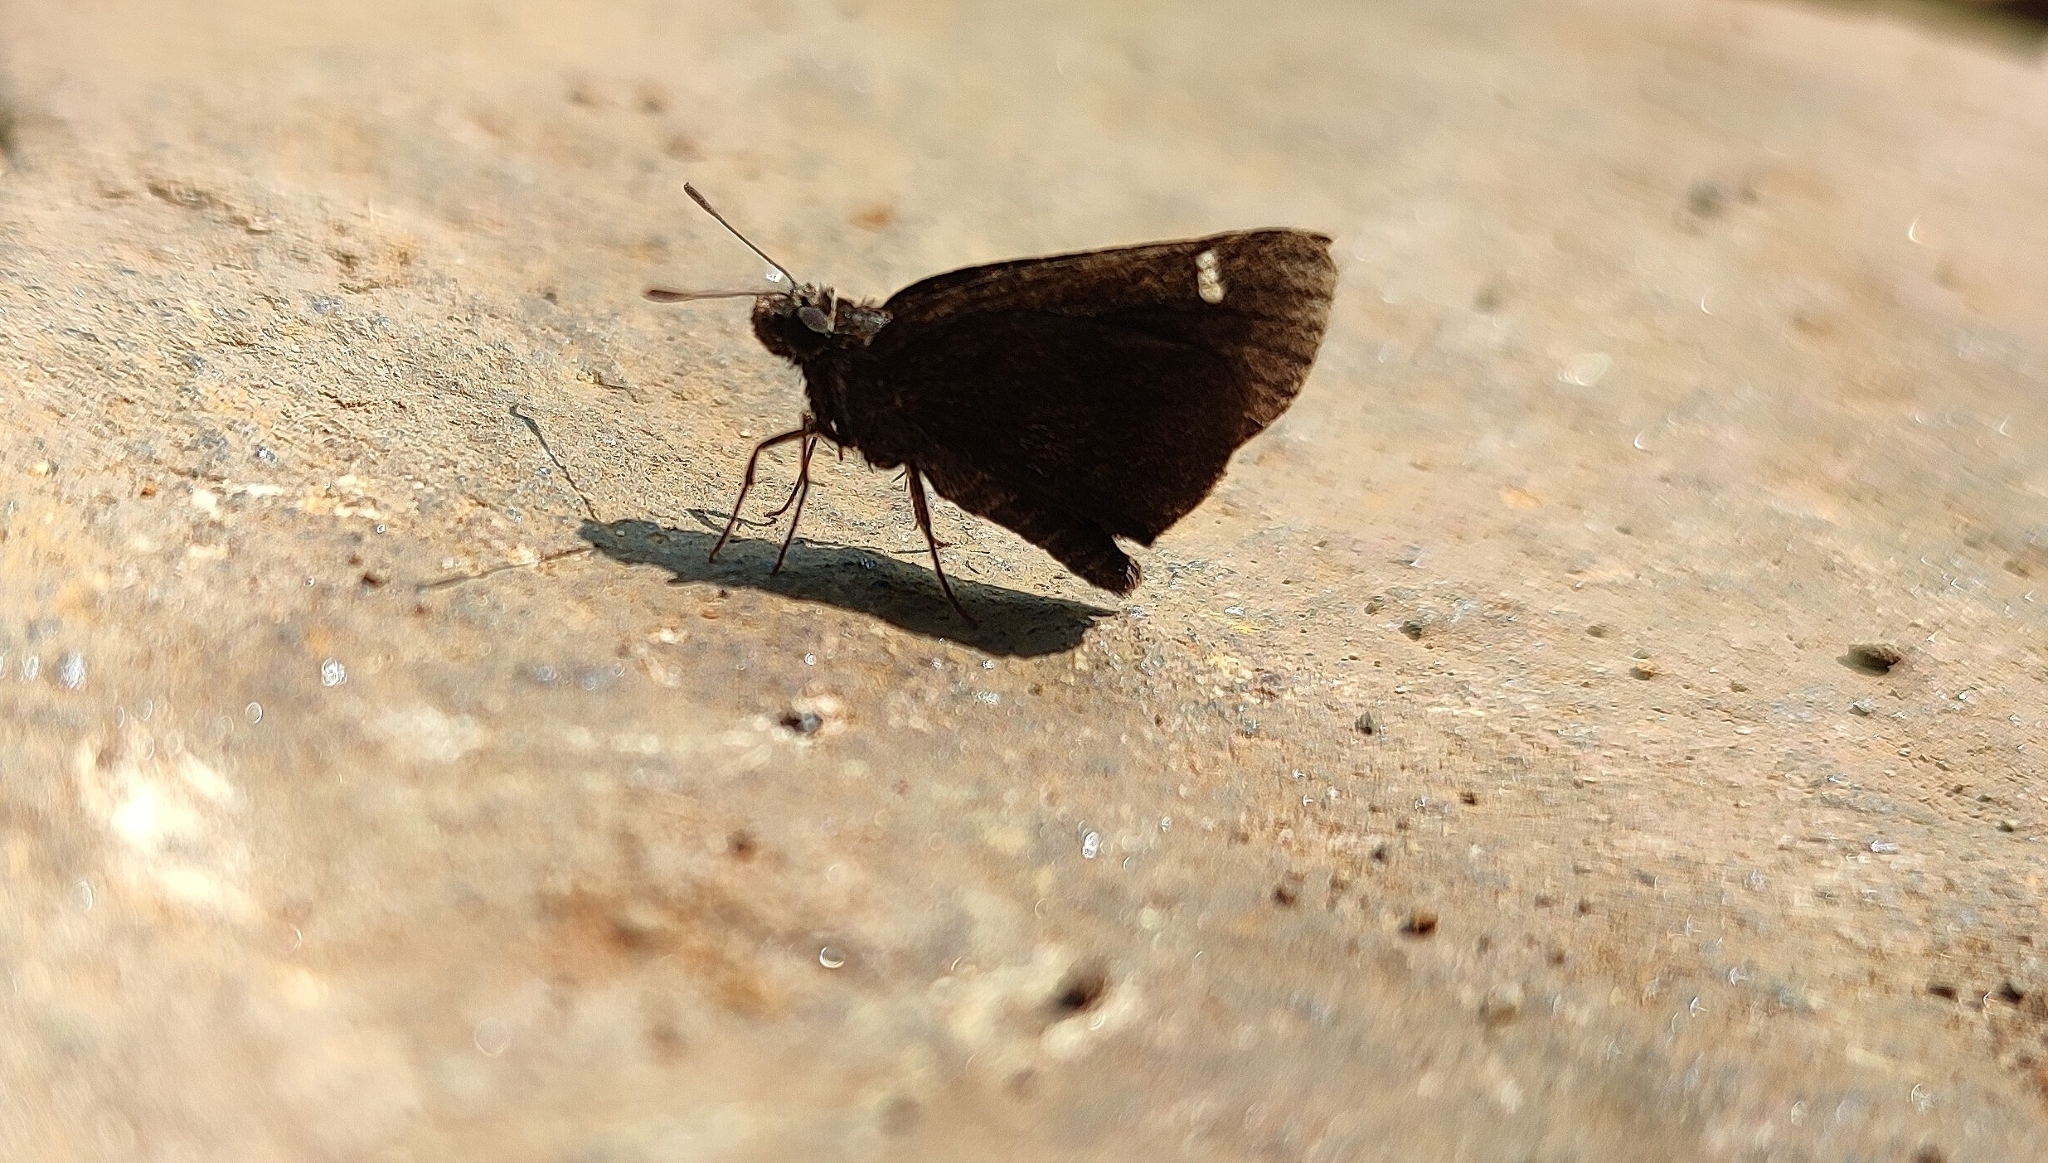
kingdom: Animalia
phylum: Arthropoda
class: Insecta
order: Lepidoptera
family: Hesperiidae
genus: Arnetta
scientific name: Arnetta mercara
